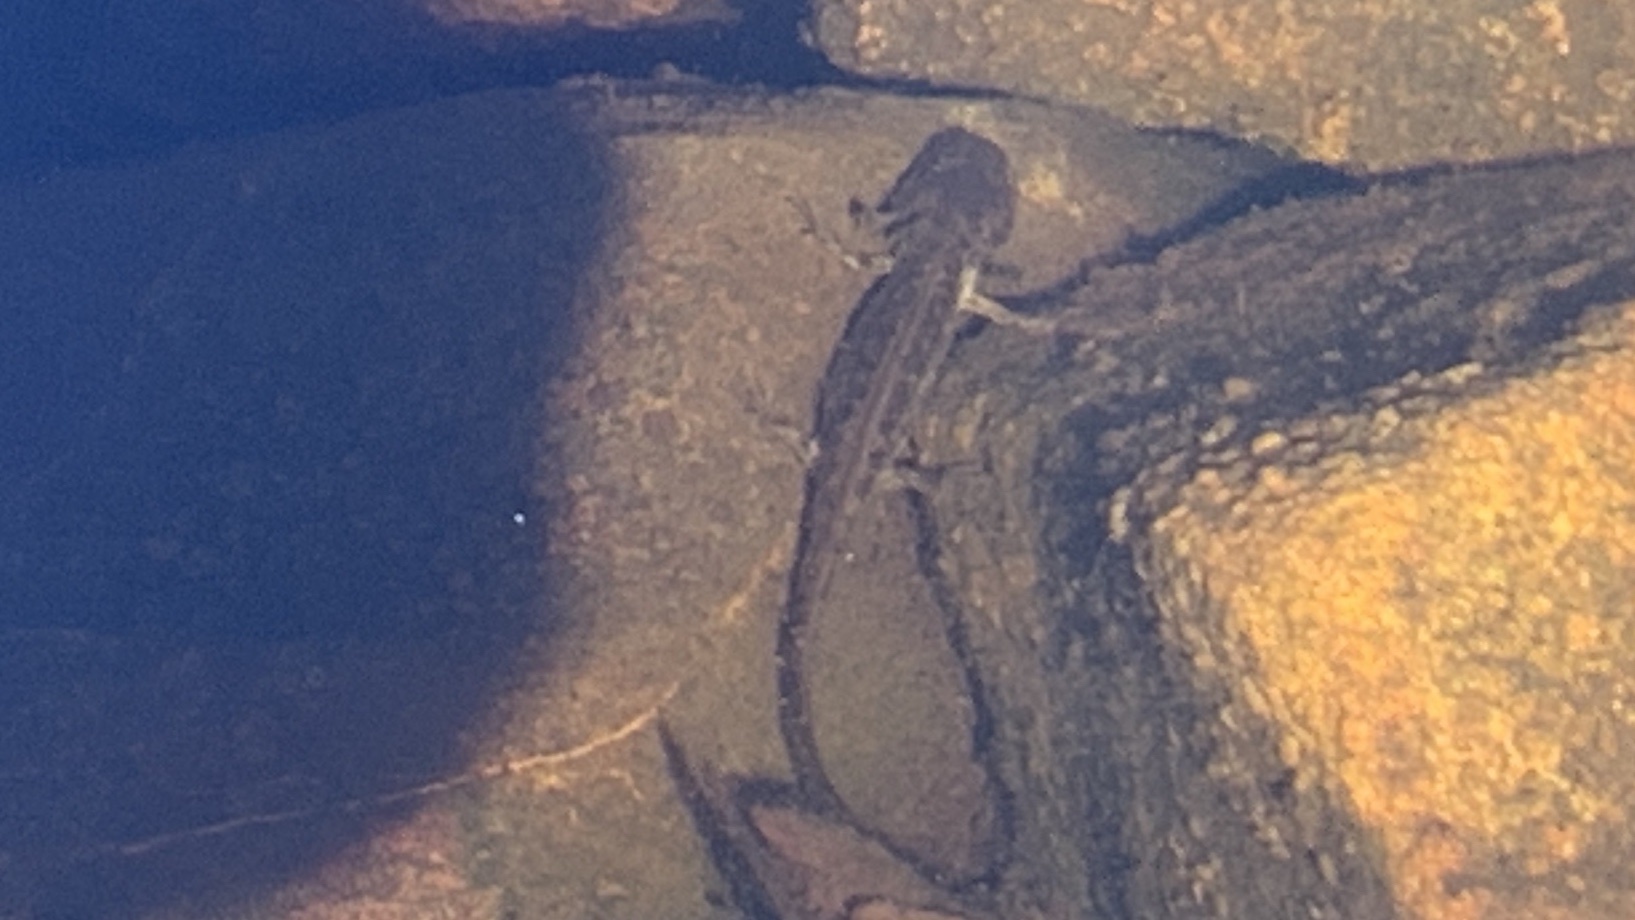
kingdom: Animalia
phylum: Chordata
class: Amphibia
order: Caudata
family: Ambystomatidae
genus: Ambystoma
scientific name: Ambystoma gracile
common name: Northwestern salamander
